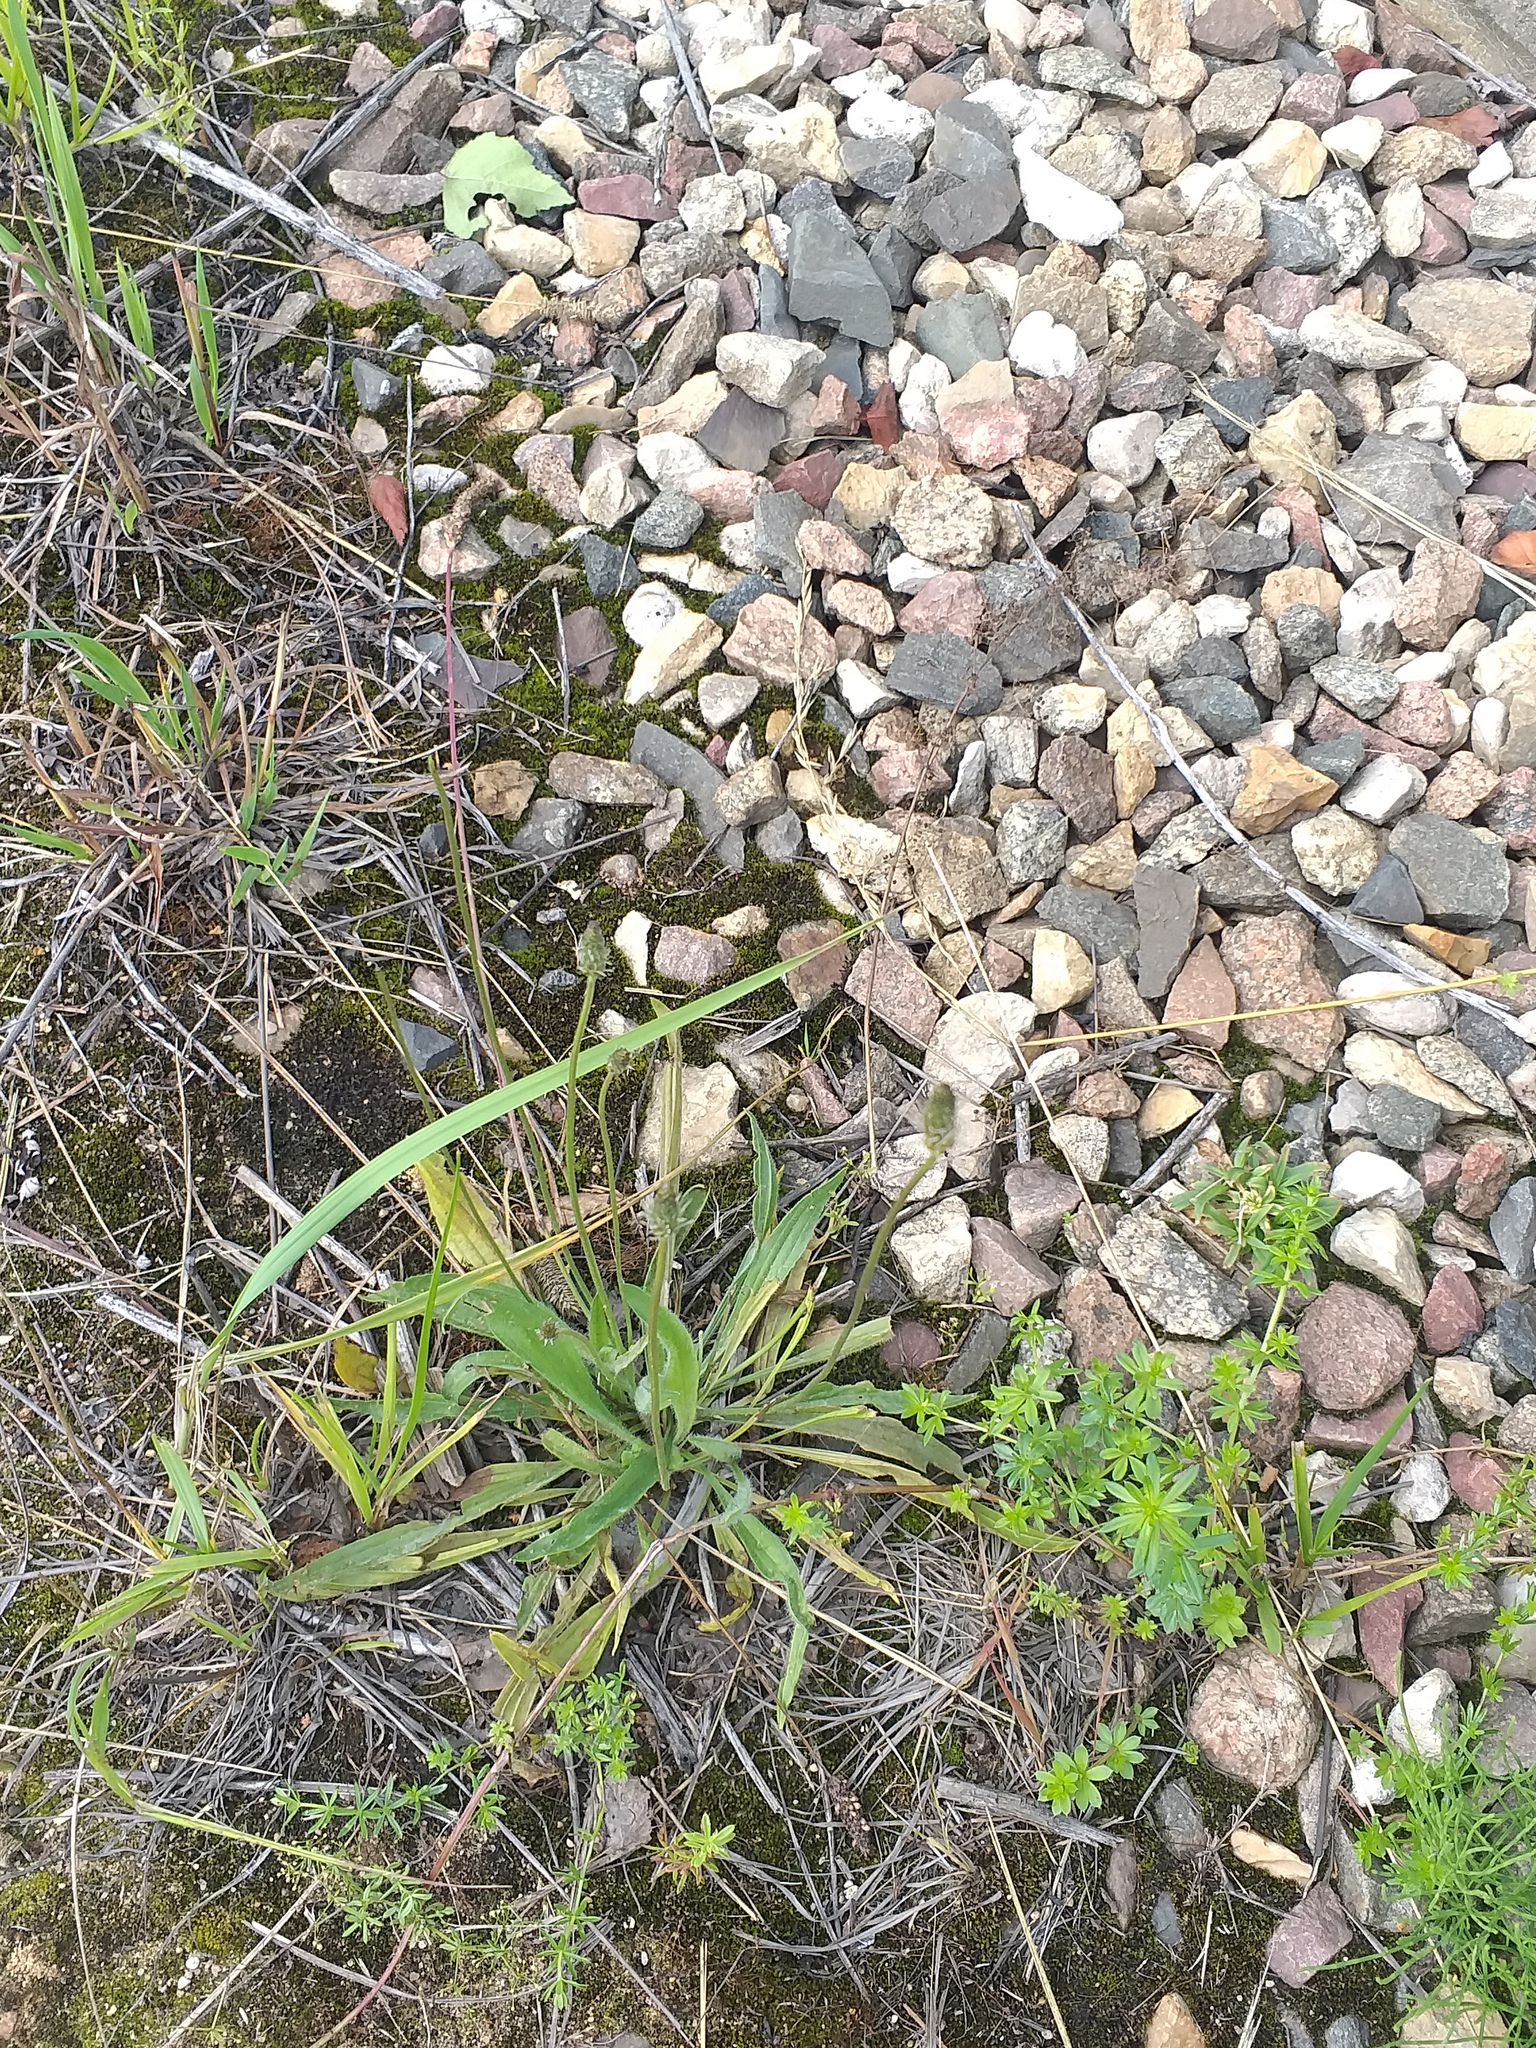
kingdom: Plantae
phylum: Tracheophyta
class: Magnoliopsida
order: Lamiales
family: Plantaginaceae
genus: Plantago
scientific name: Plantago lanceolata
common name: Ribwort plantain
